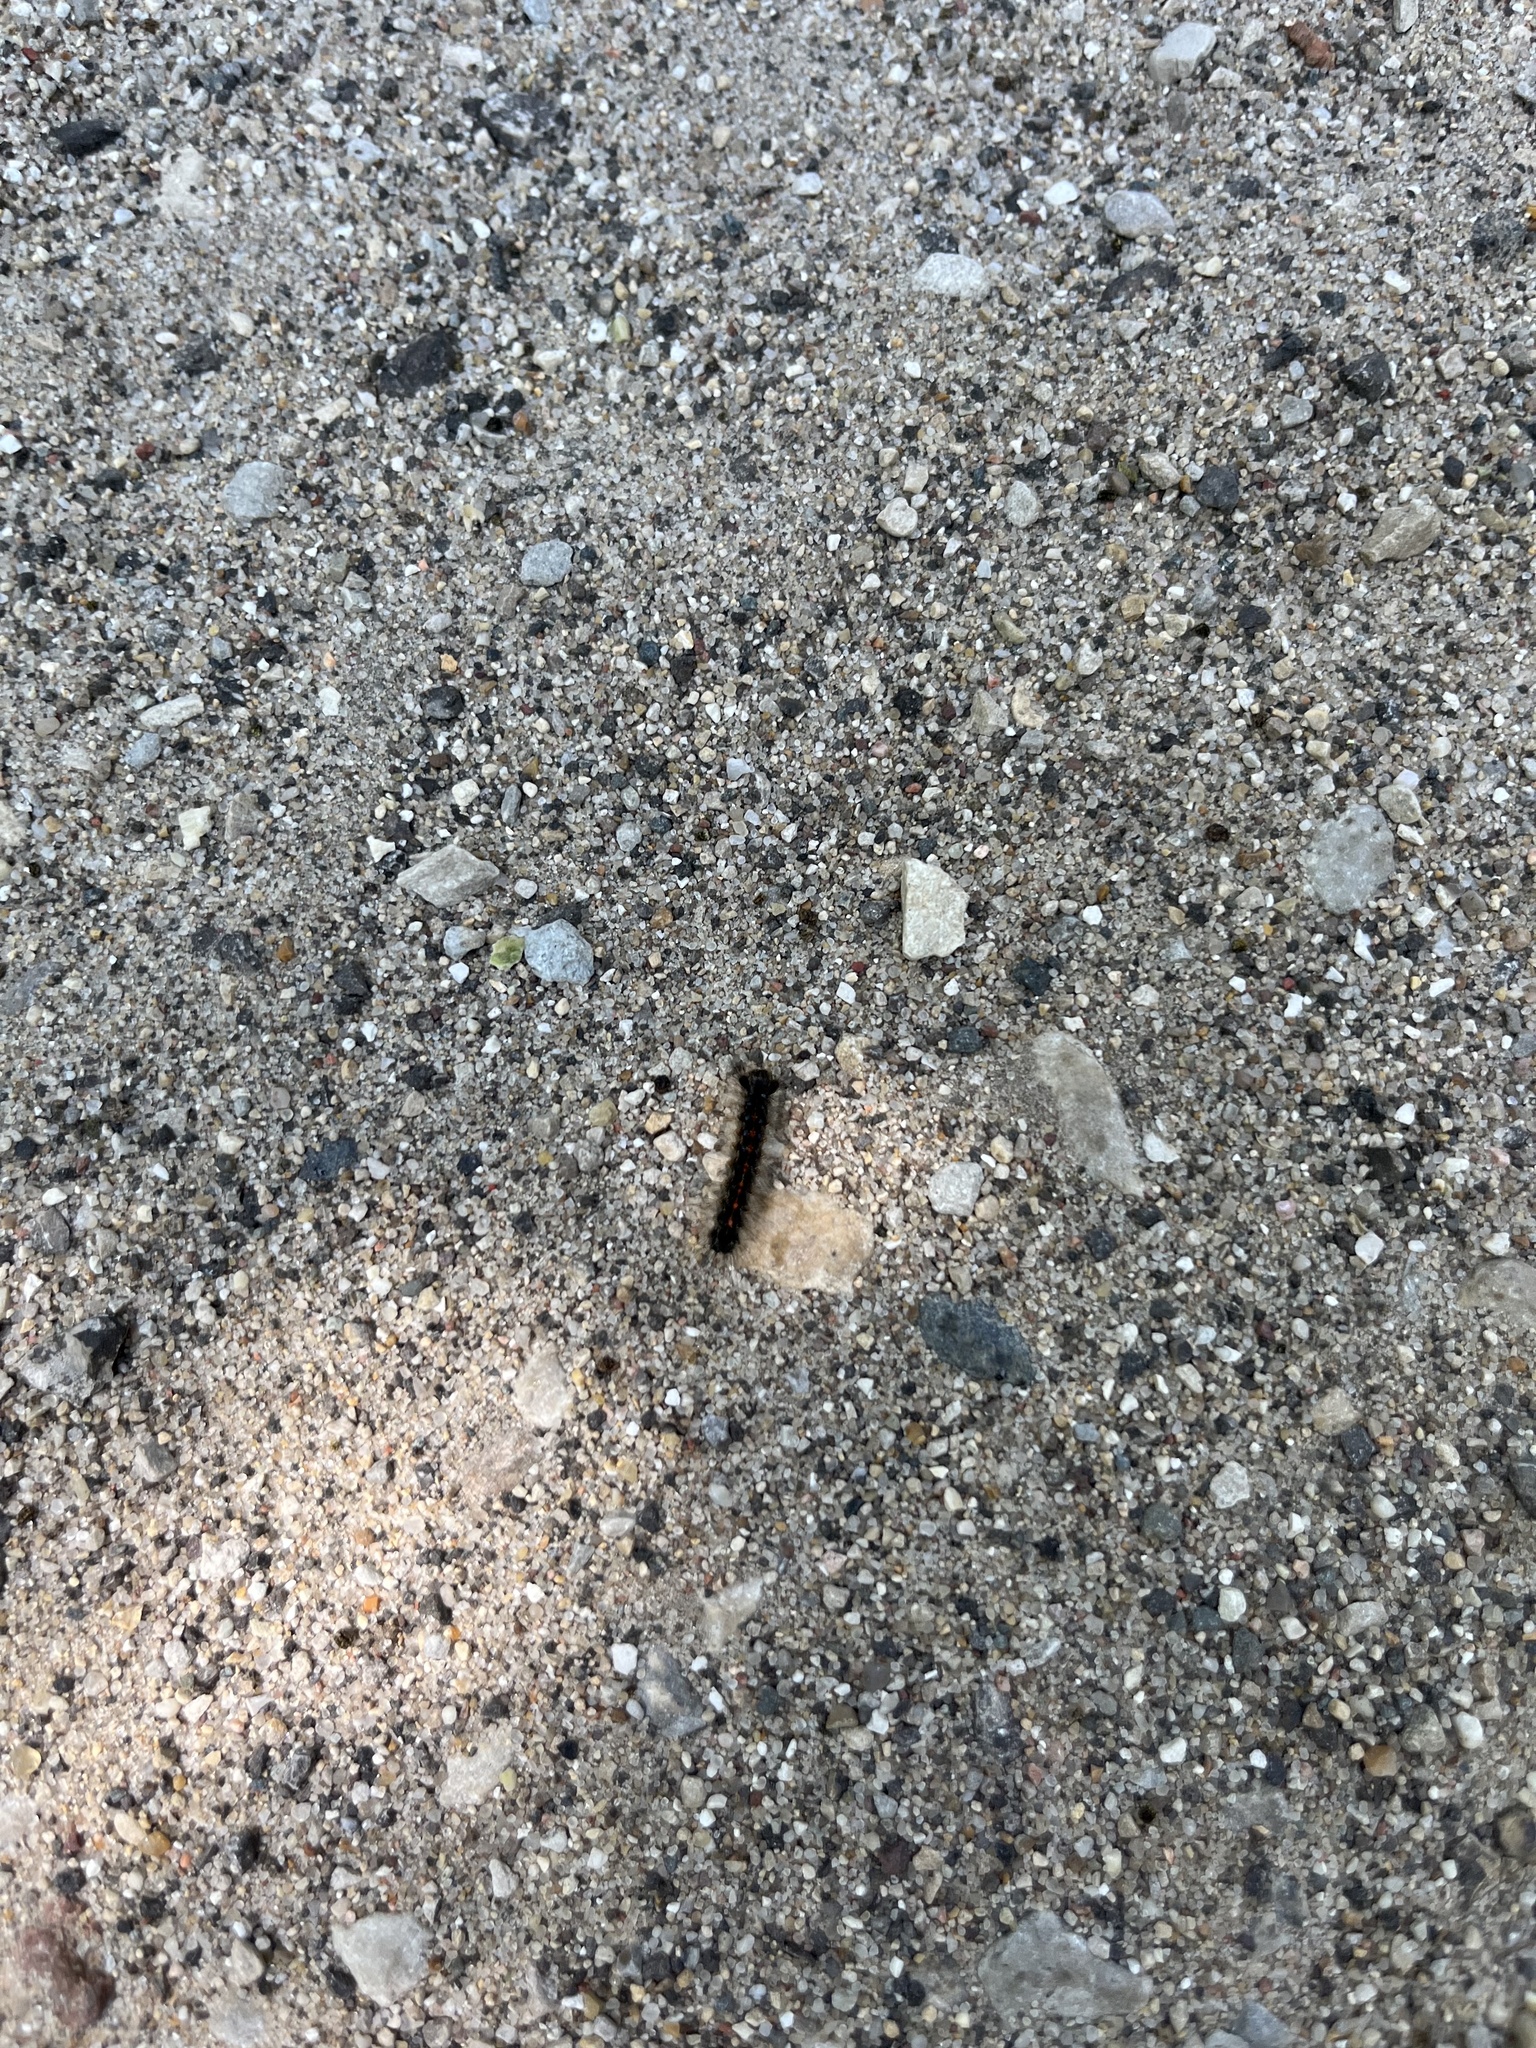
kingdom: Animalia
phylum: Arthropoda
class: Insecta
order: Lepidoptera
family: Erebidae
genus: Lymantria
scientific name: Lymantria dispar
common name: Gypsy moth
